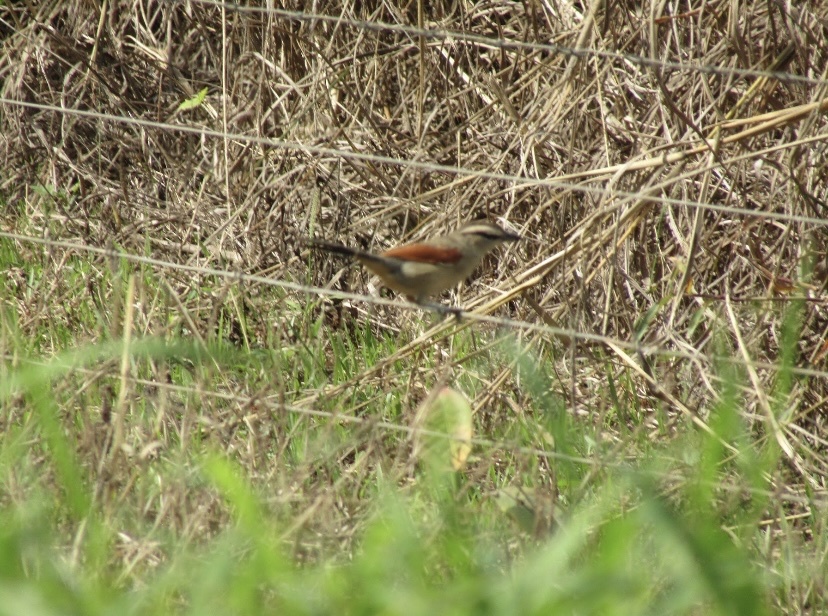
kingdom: Animalia
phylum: Chordata
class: Aves
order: Passeriformes
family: Malaconotidae
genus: Tchagra
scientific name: Tchagra australis
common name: Brown-crowned tchagra
